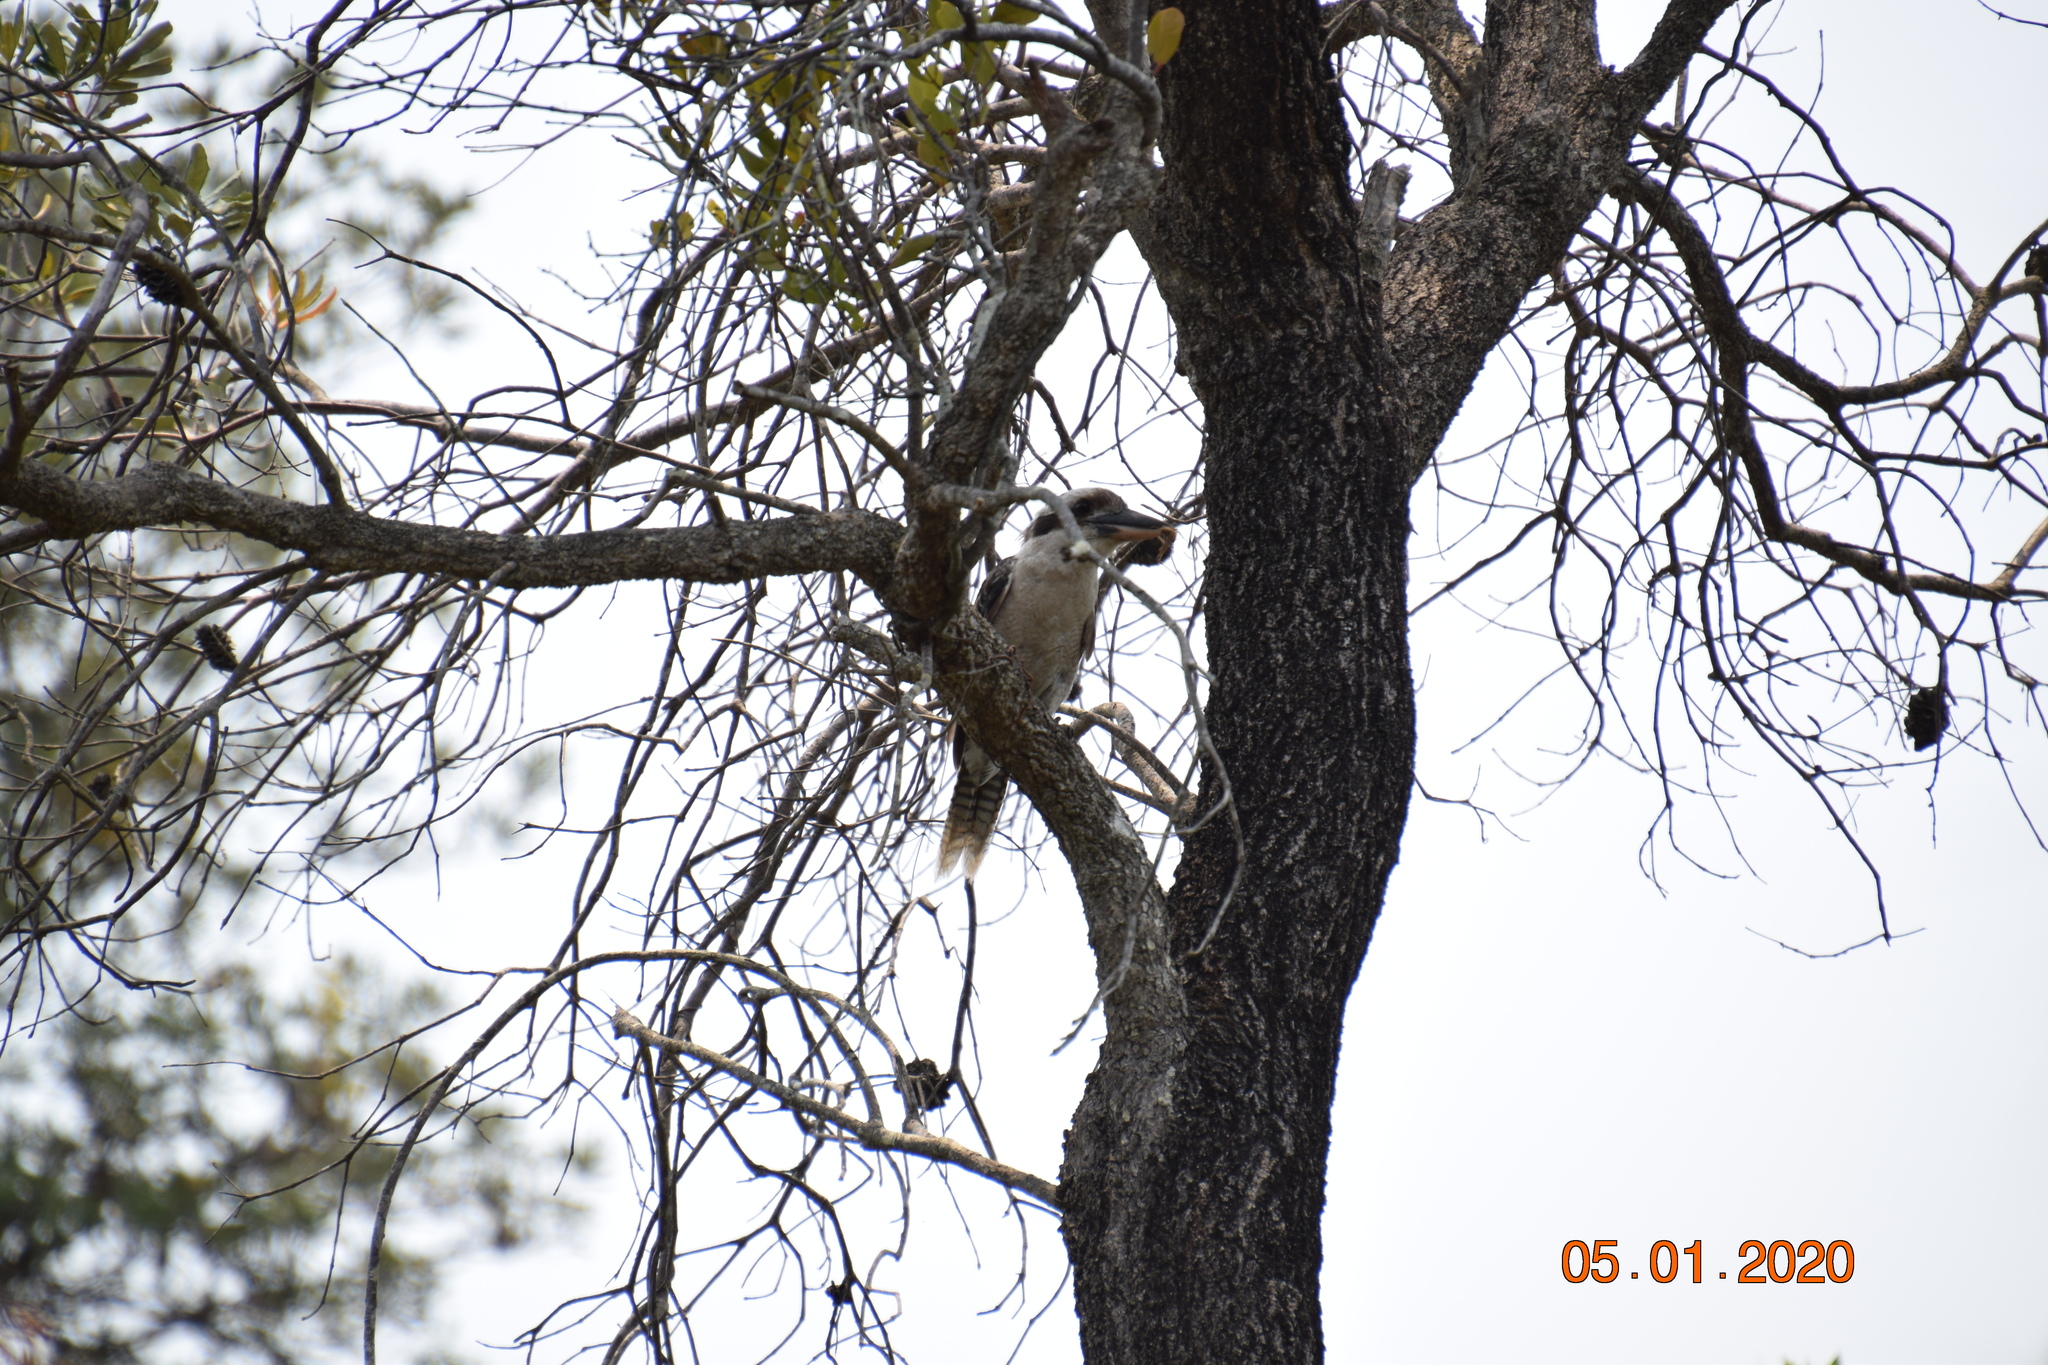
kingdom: Animalia
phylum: Chordata
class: Aves
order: Coraciiformes
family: Alcedinidae
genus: Dacelo
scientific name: Dacelo novaeguineae
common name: Laughing kookaburra
